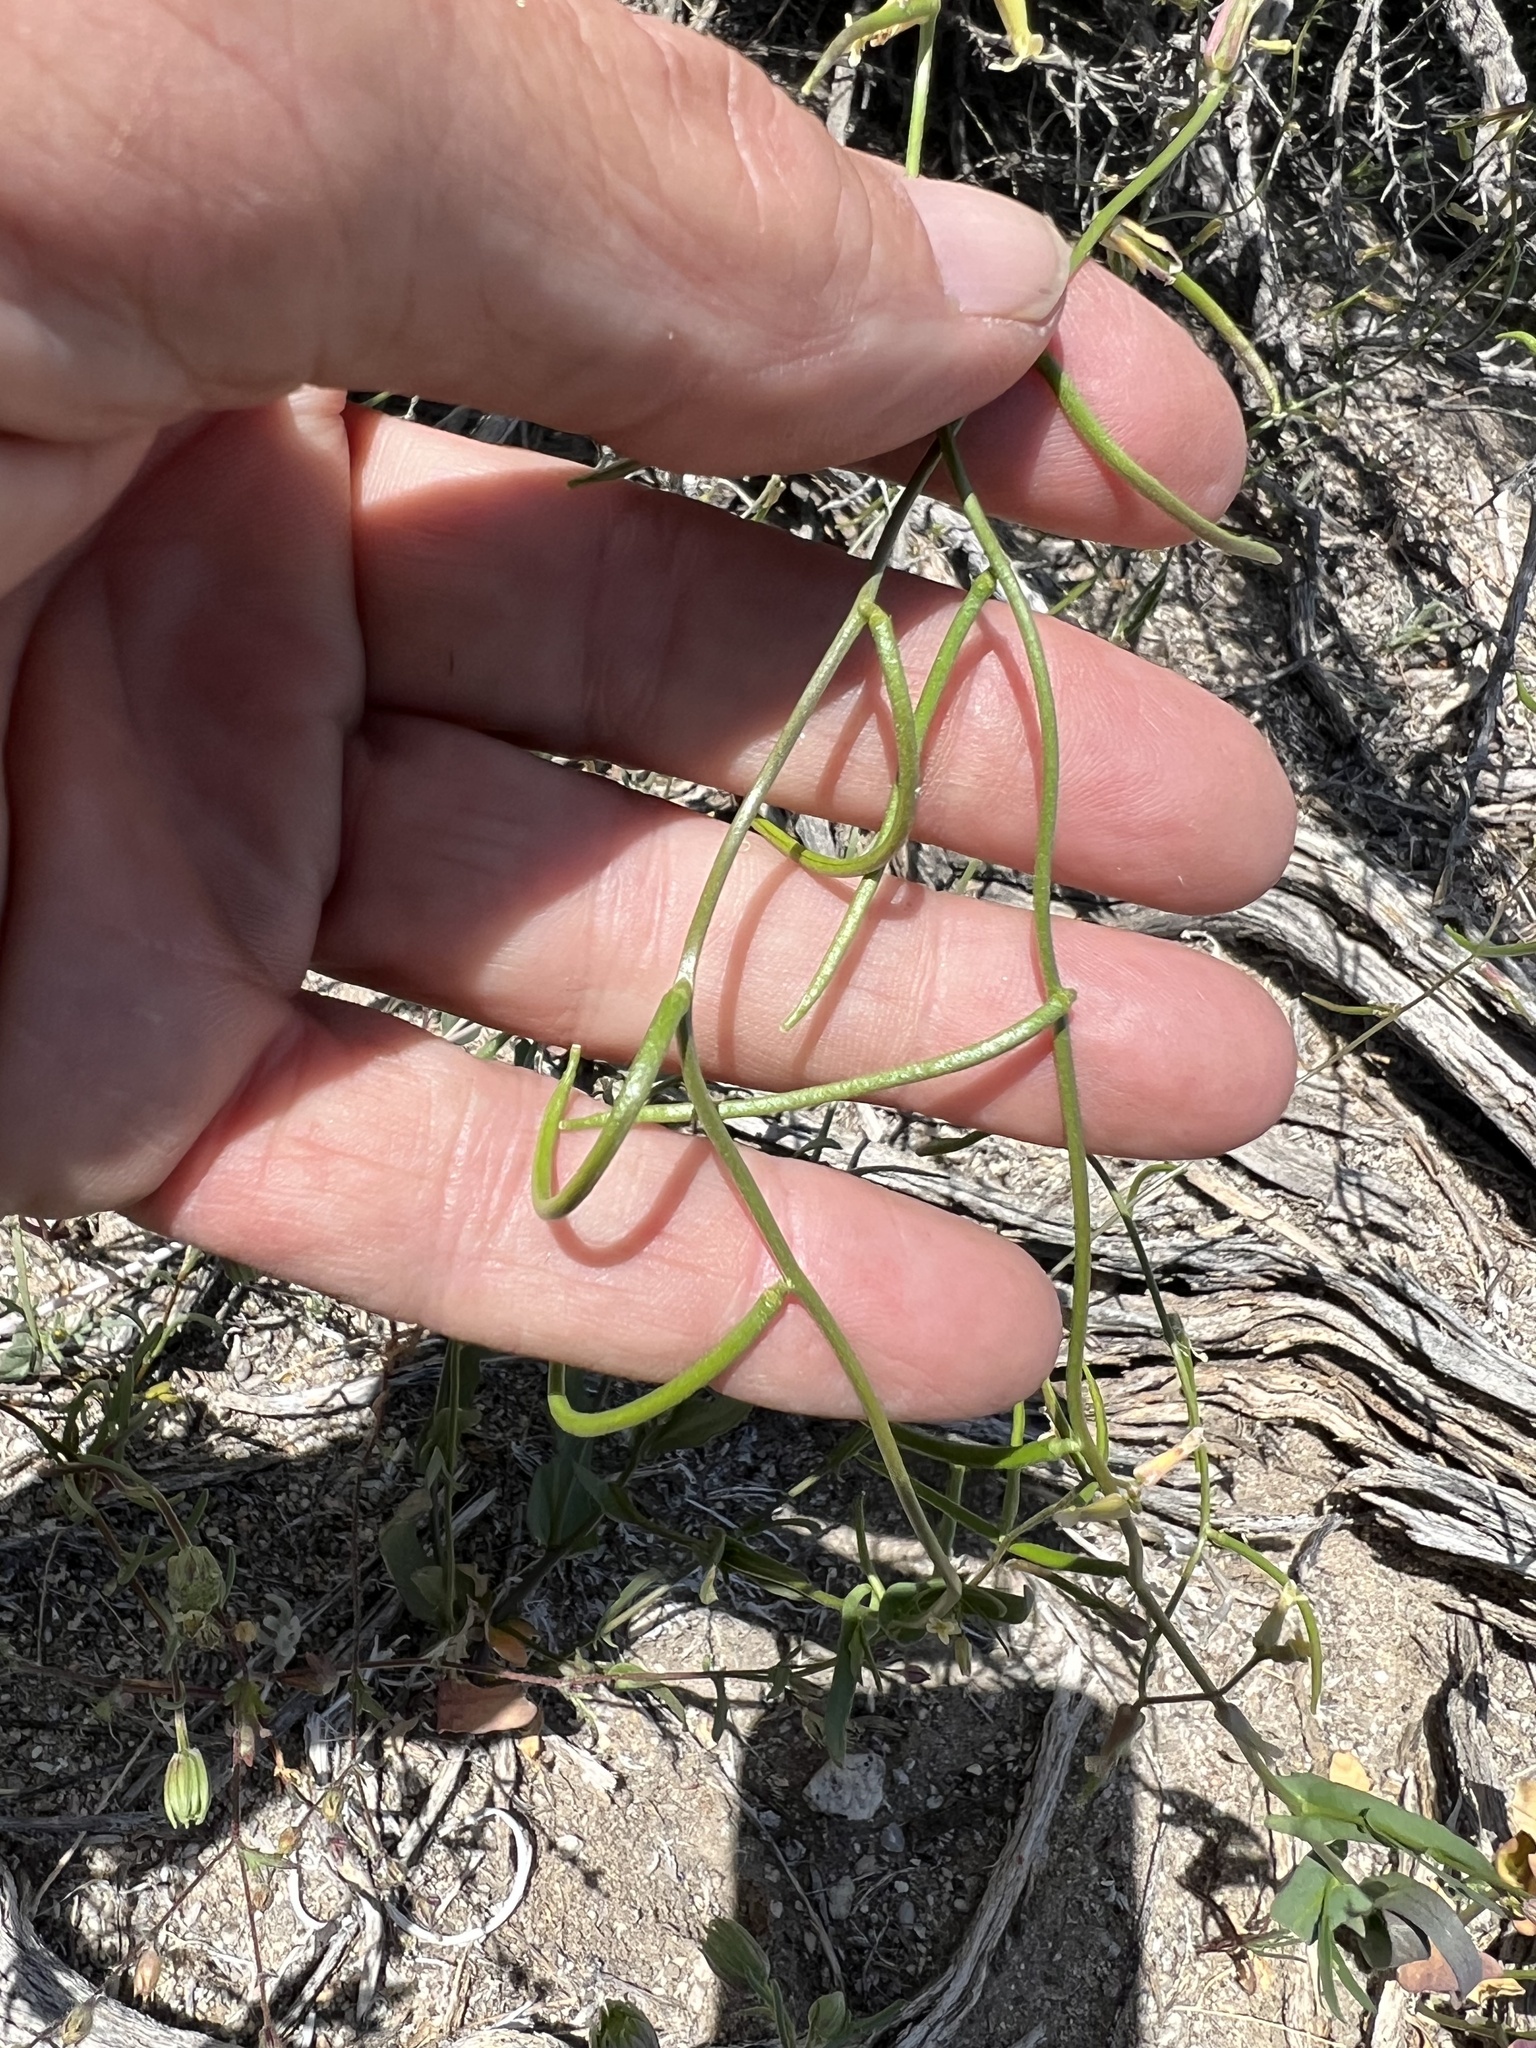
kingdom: Plantae
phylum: Tracheophyta
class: Magnoliopsida
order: Brassicales
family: Brassicaceae
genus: Streptanthus
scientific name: Streptanthus cooperi
